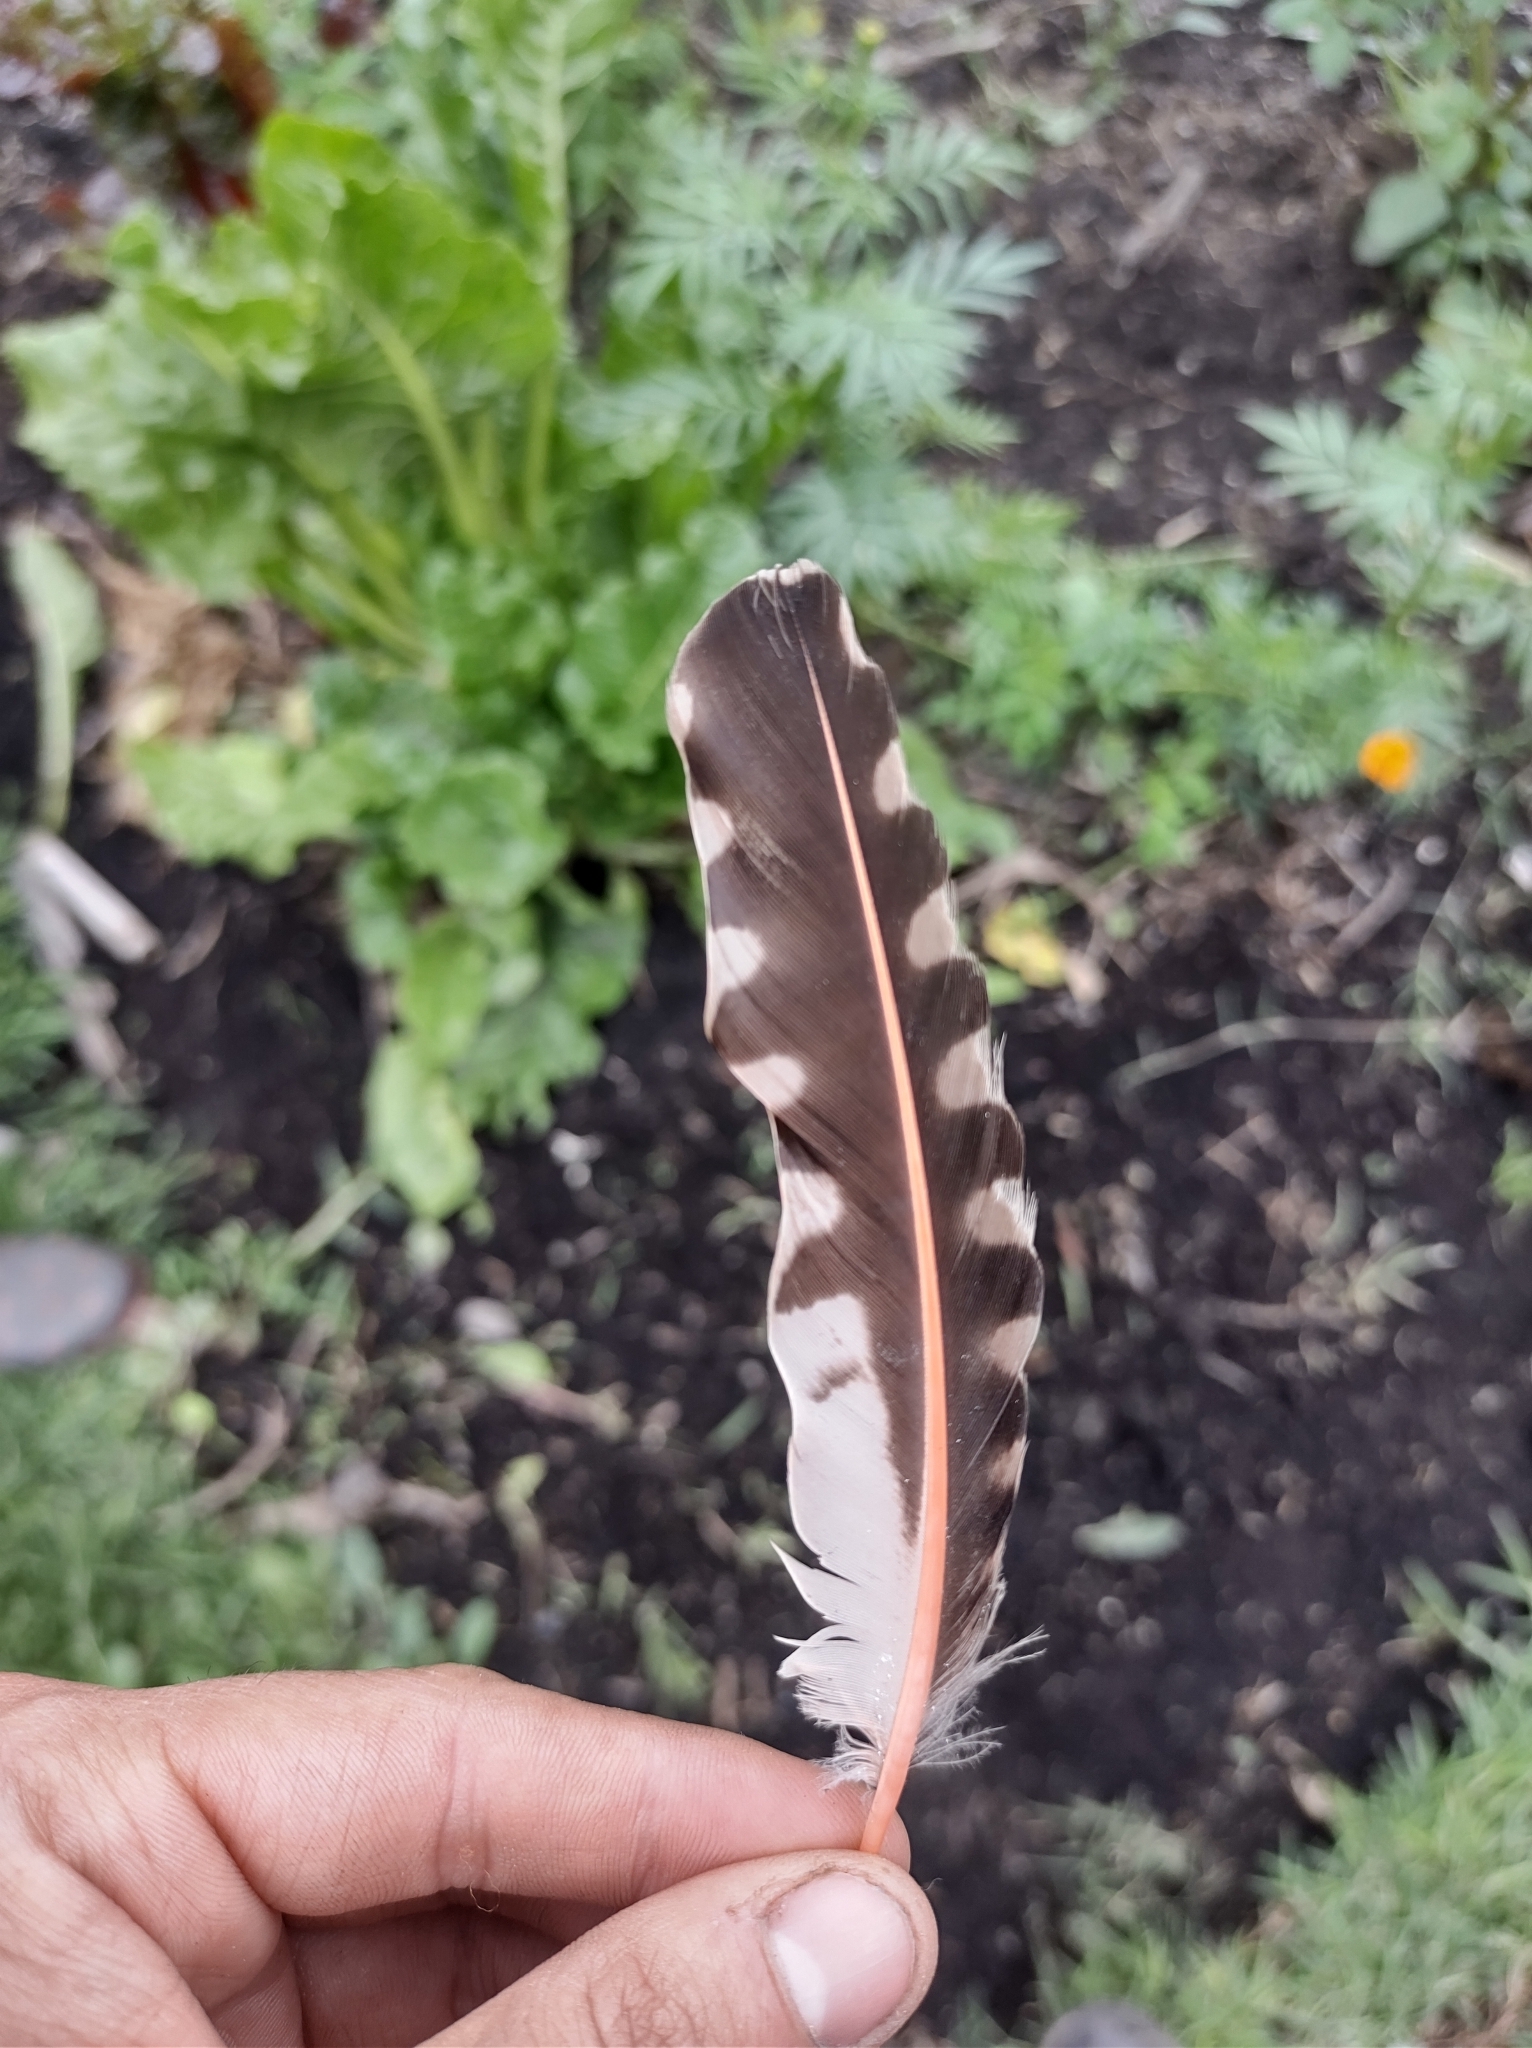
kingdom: Animalia
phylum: Chordata
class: Aves
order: Piciformes
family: Picidae
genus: Colaptes
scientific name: Colaptes auratus
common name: Northern flicker
